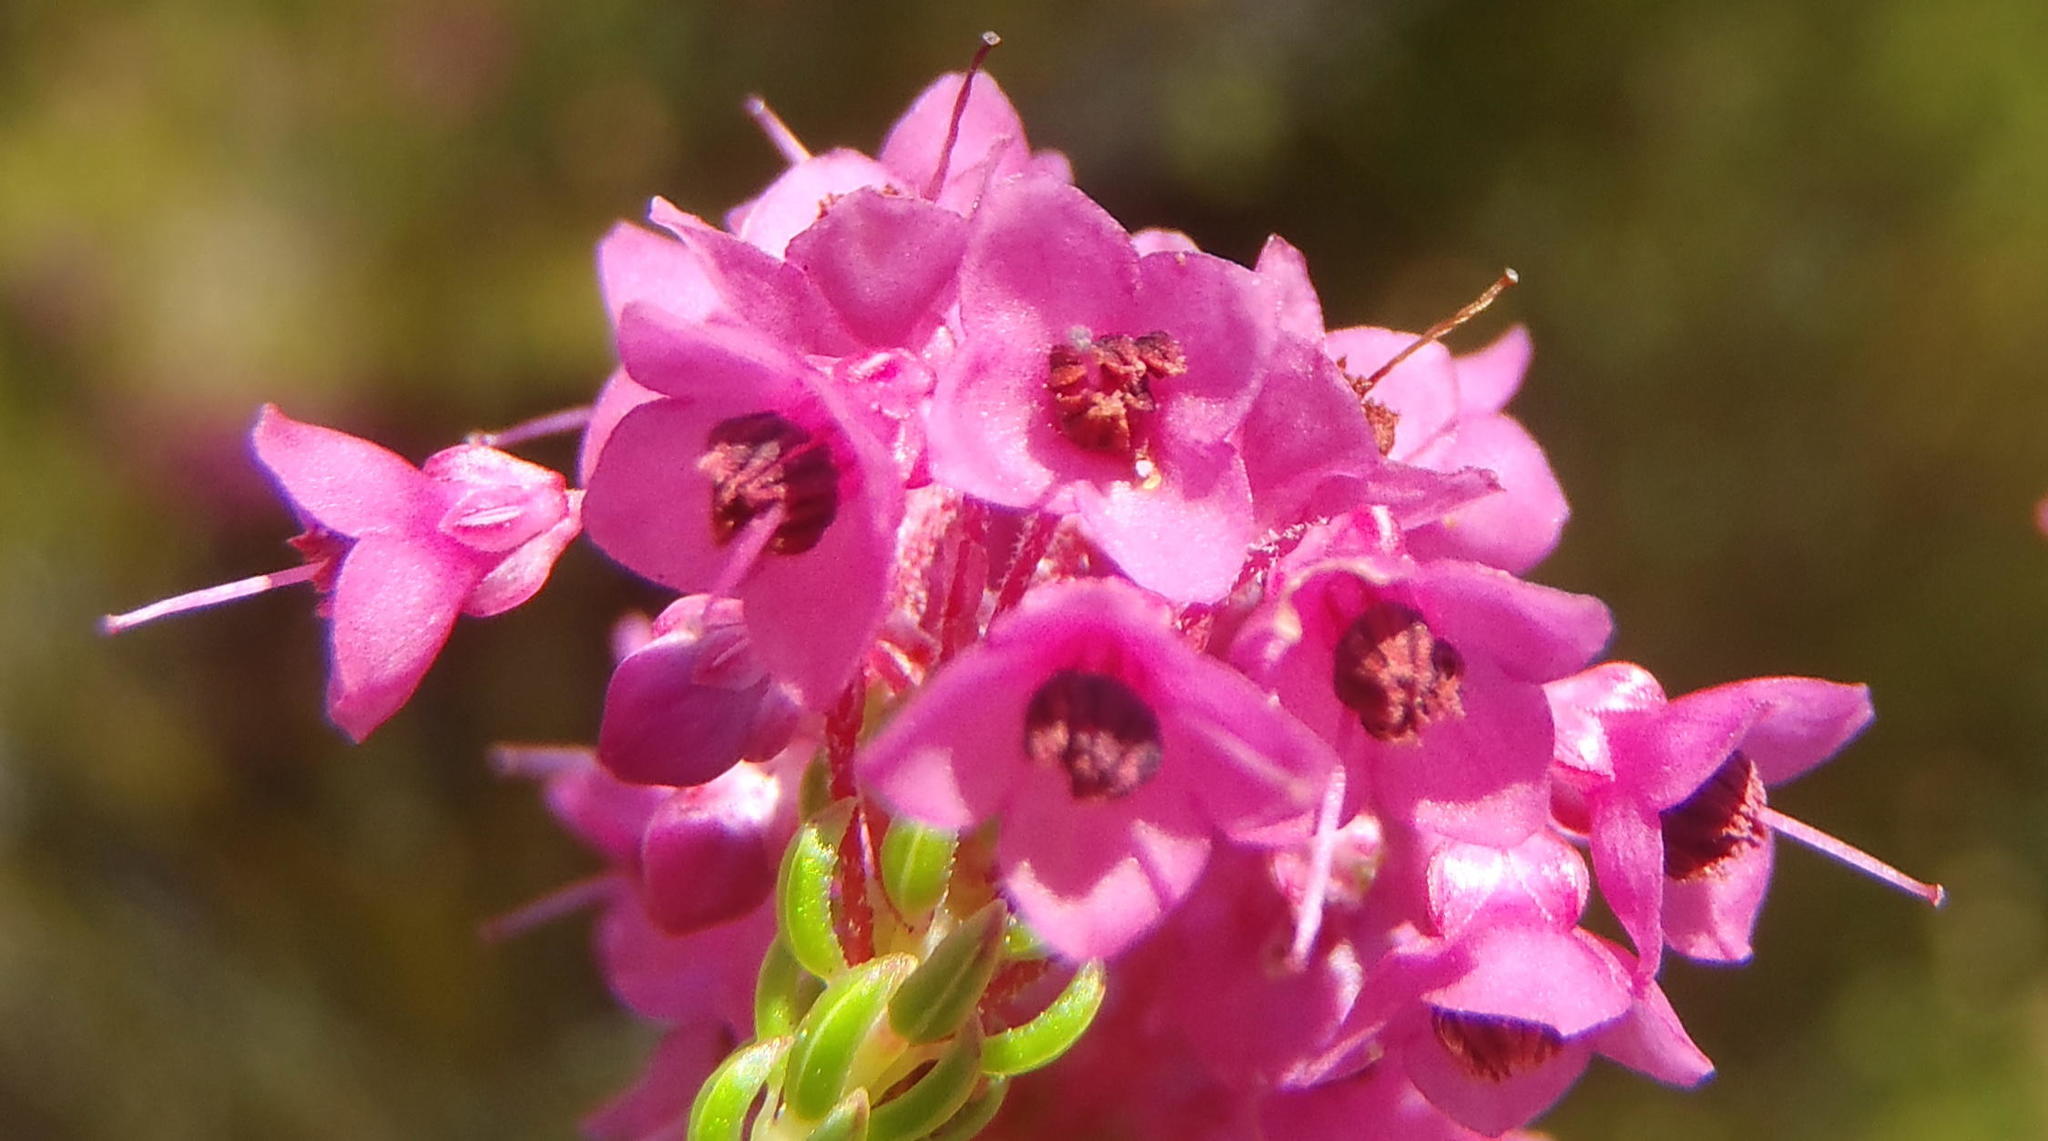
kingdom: Plantae
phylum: Tracheophyta
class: Magnoliopsida
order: Ericales
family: Ericaceae
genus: Erica
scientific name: Erica seriphiifolia
